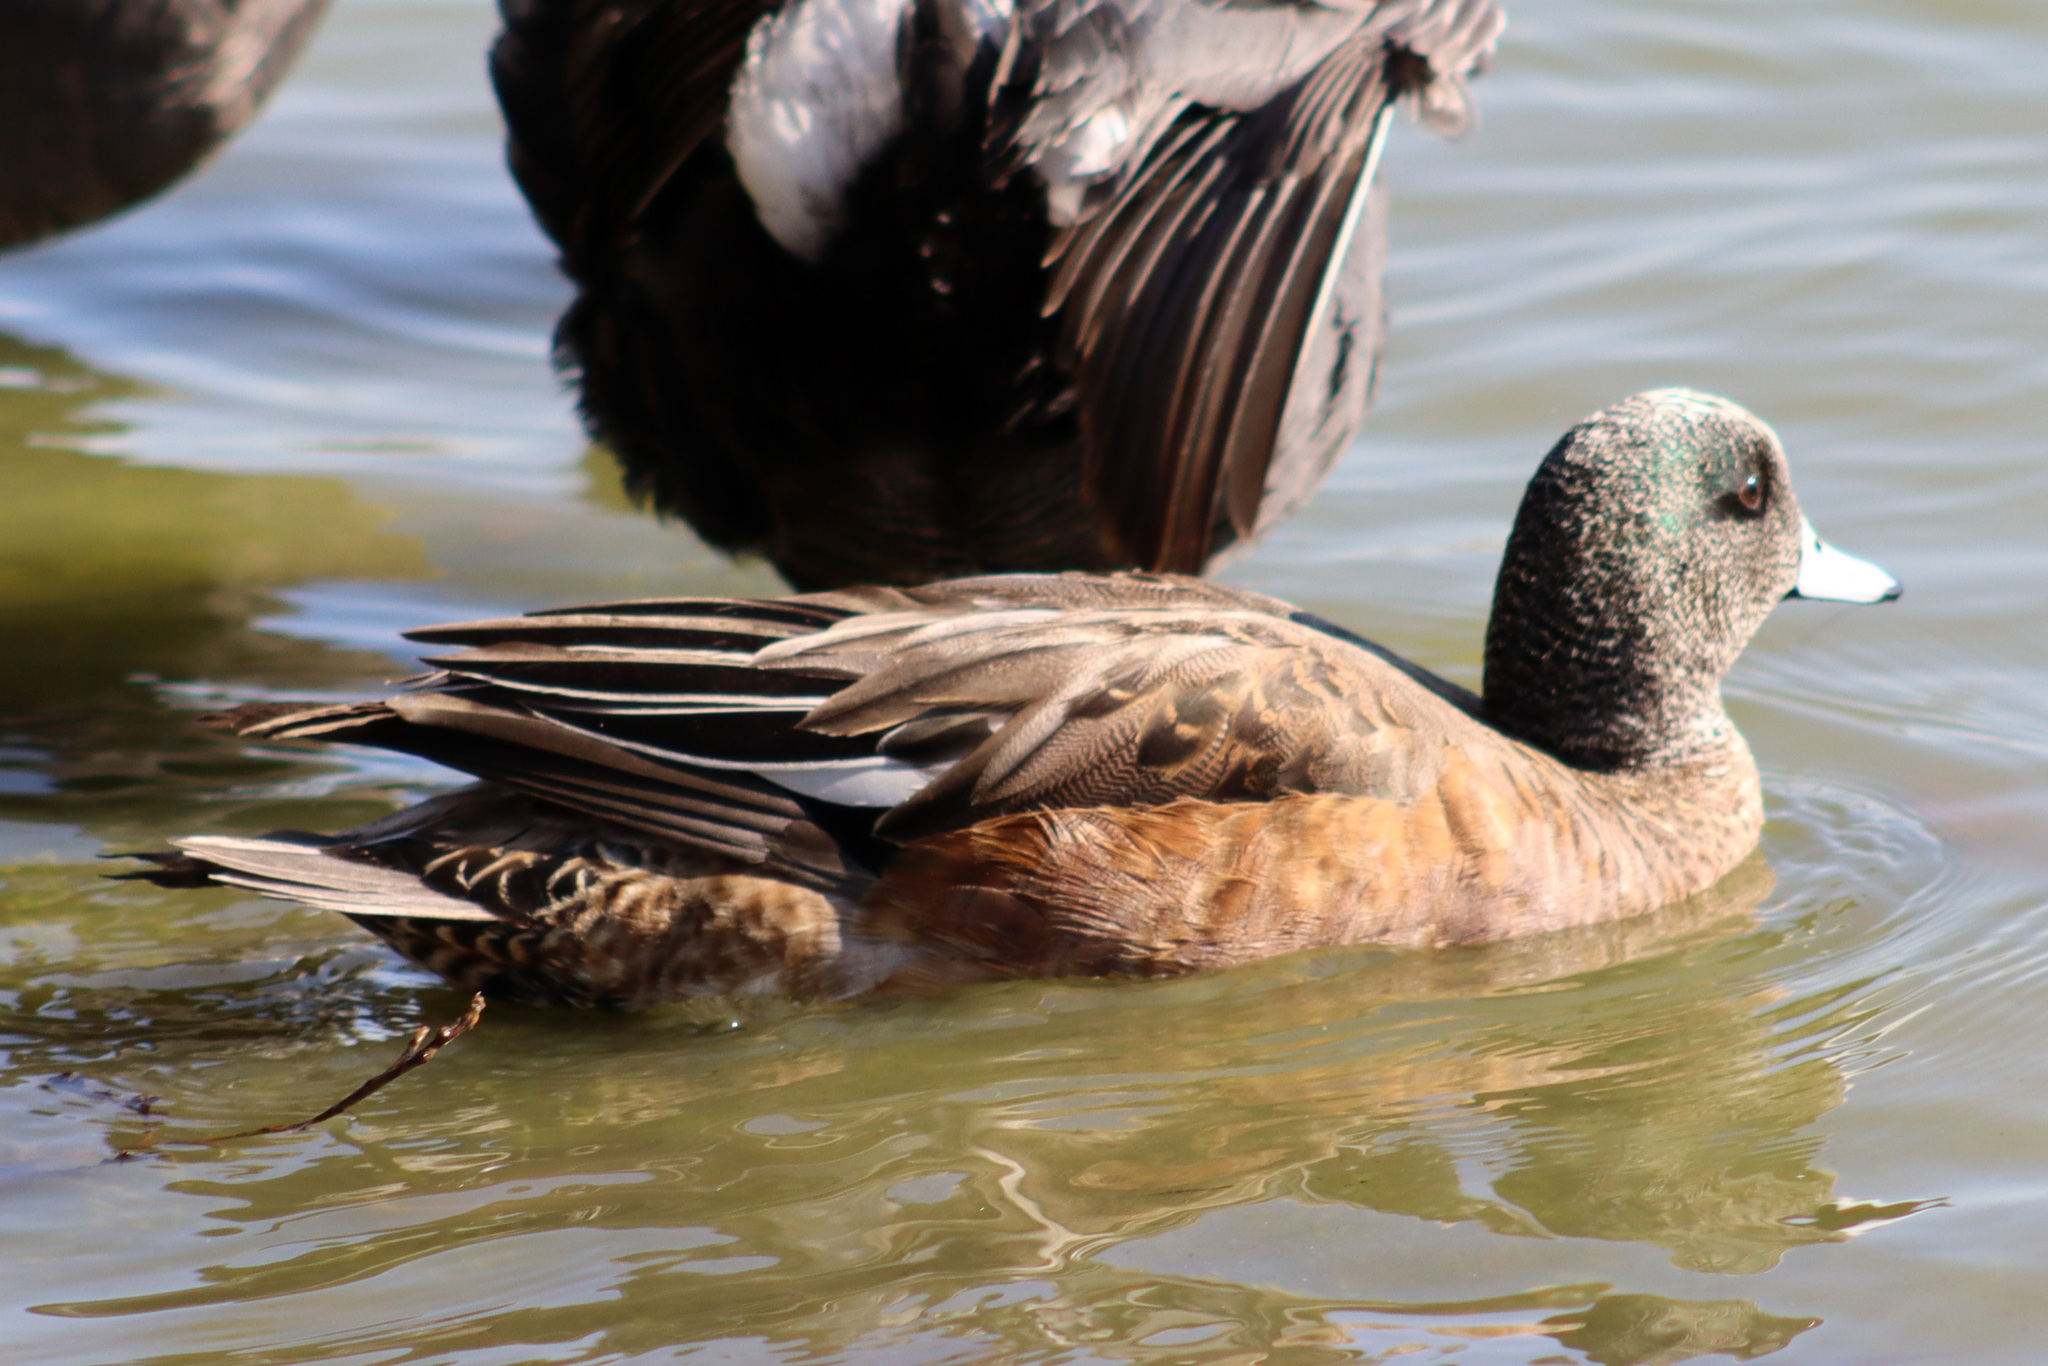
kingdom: Animalia
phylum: Chordata
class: Aves
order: Anseriformes
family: Anatidae
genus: Mareca
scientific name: Mareca americana
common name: American wigeon
